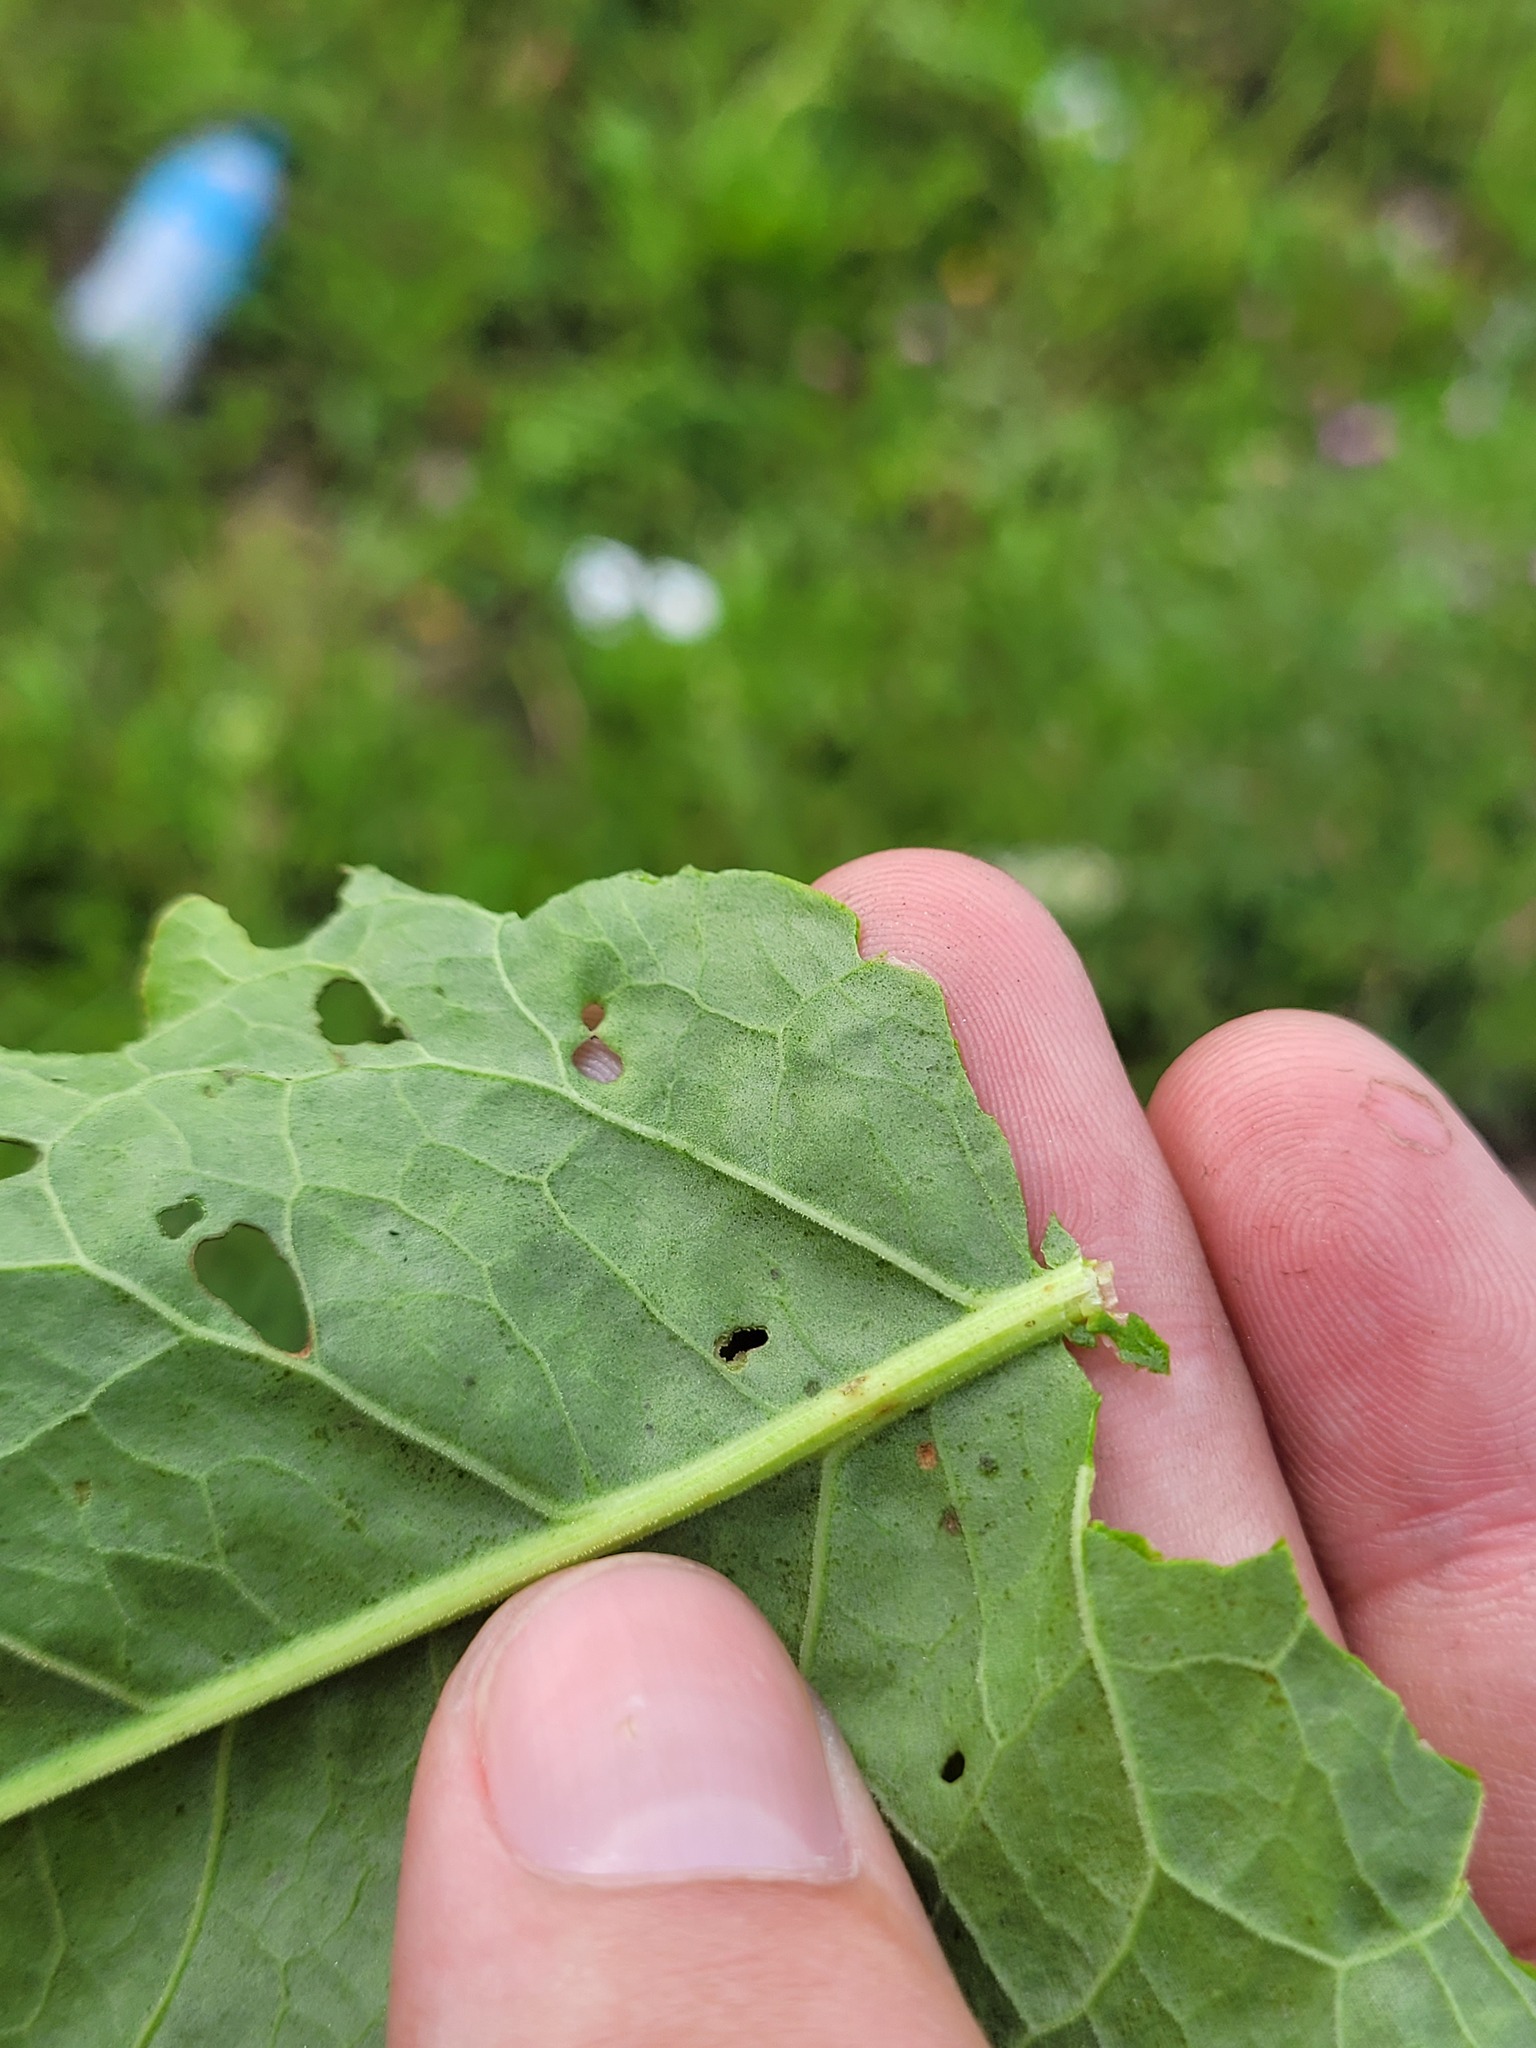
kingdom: Plantae
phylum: Tracheophyta
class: Magnoliopsida
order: Caryophyllales
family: Polygonaceae
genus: Rumex
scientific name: Rumex confertus
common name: Russian dock
